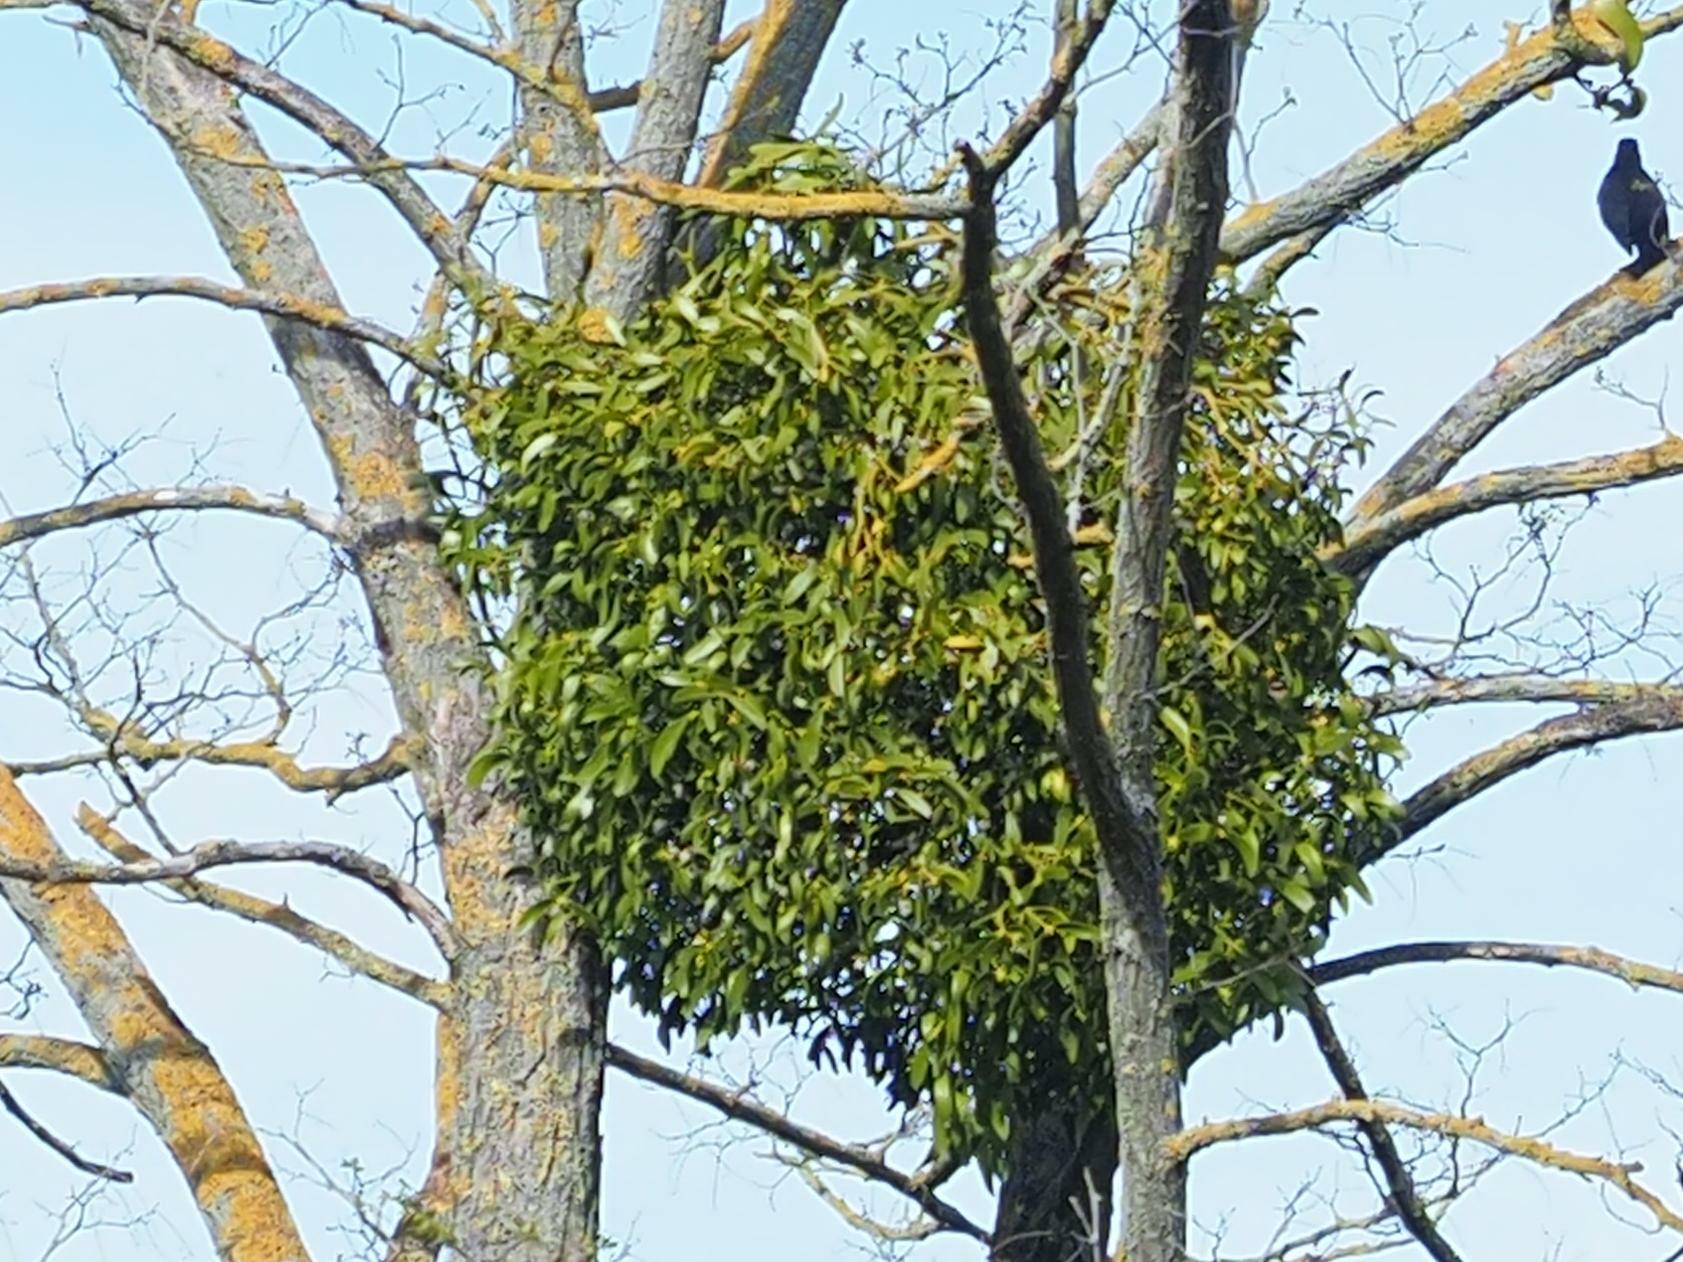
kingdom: Plantae
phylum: Tracheophyta
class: Magnoliopsida
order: Santalales
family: Viscaceae
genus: Viscum
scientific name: Viscum album
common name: Mistletoe
